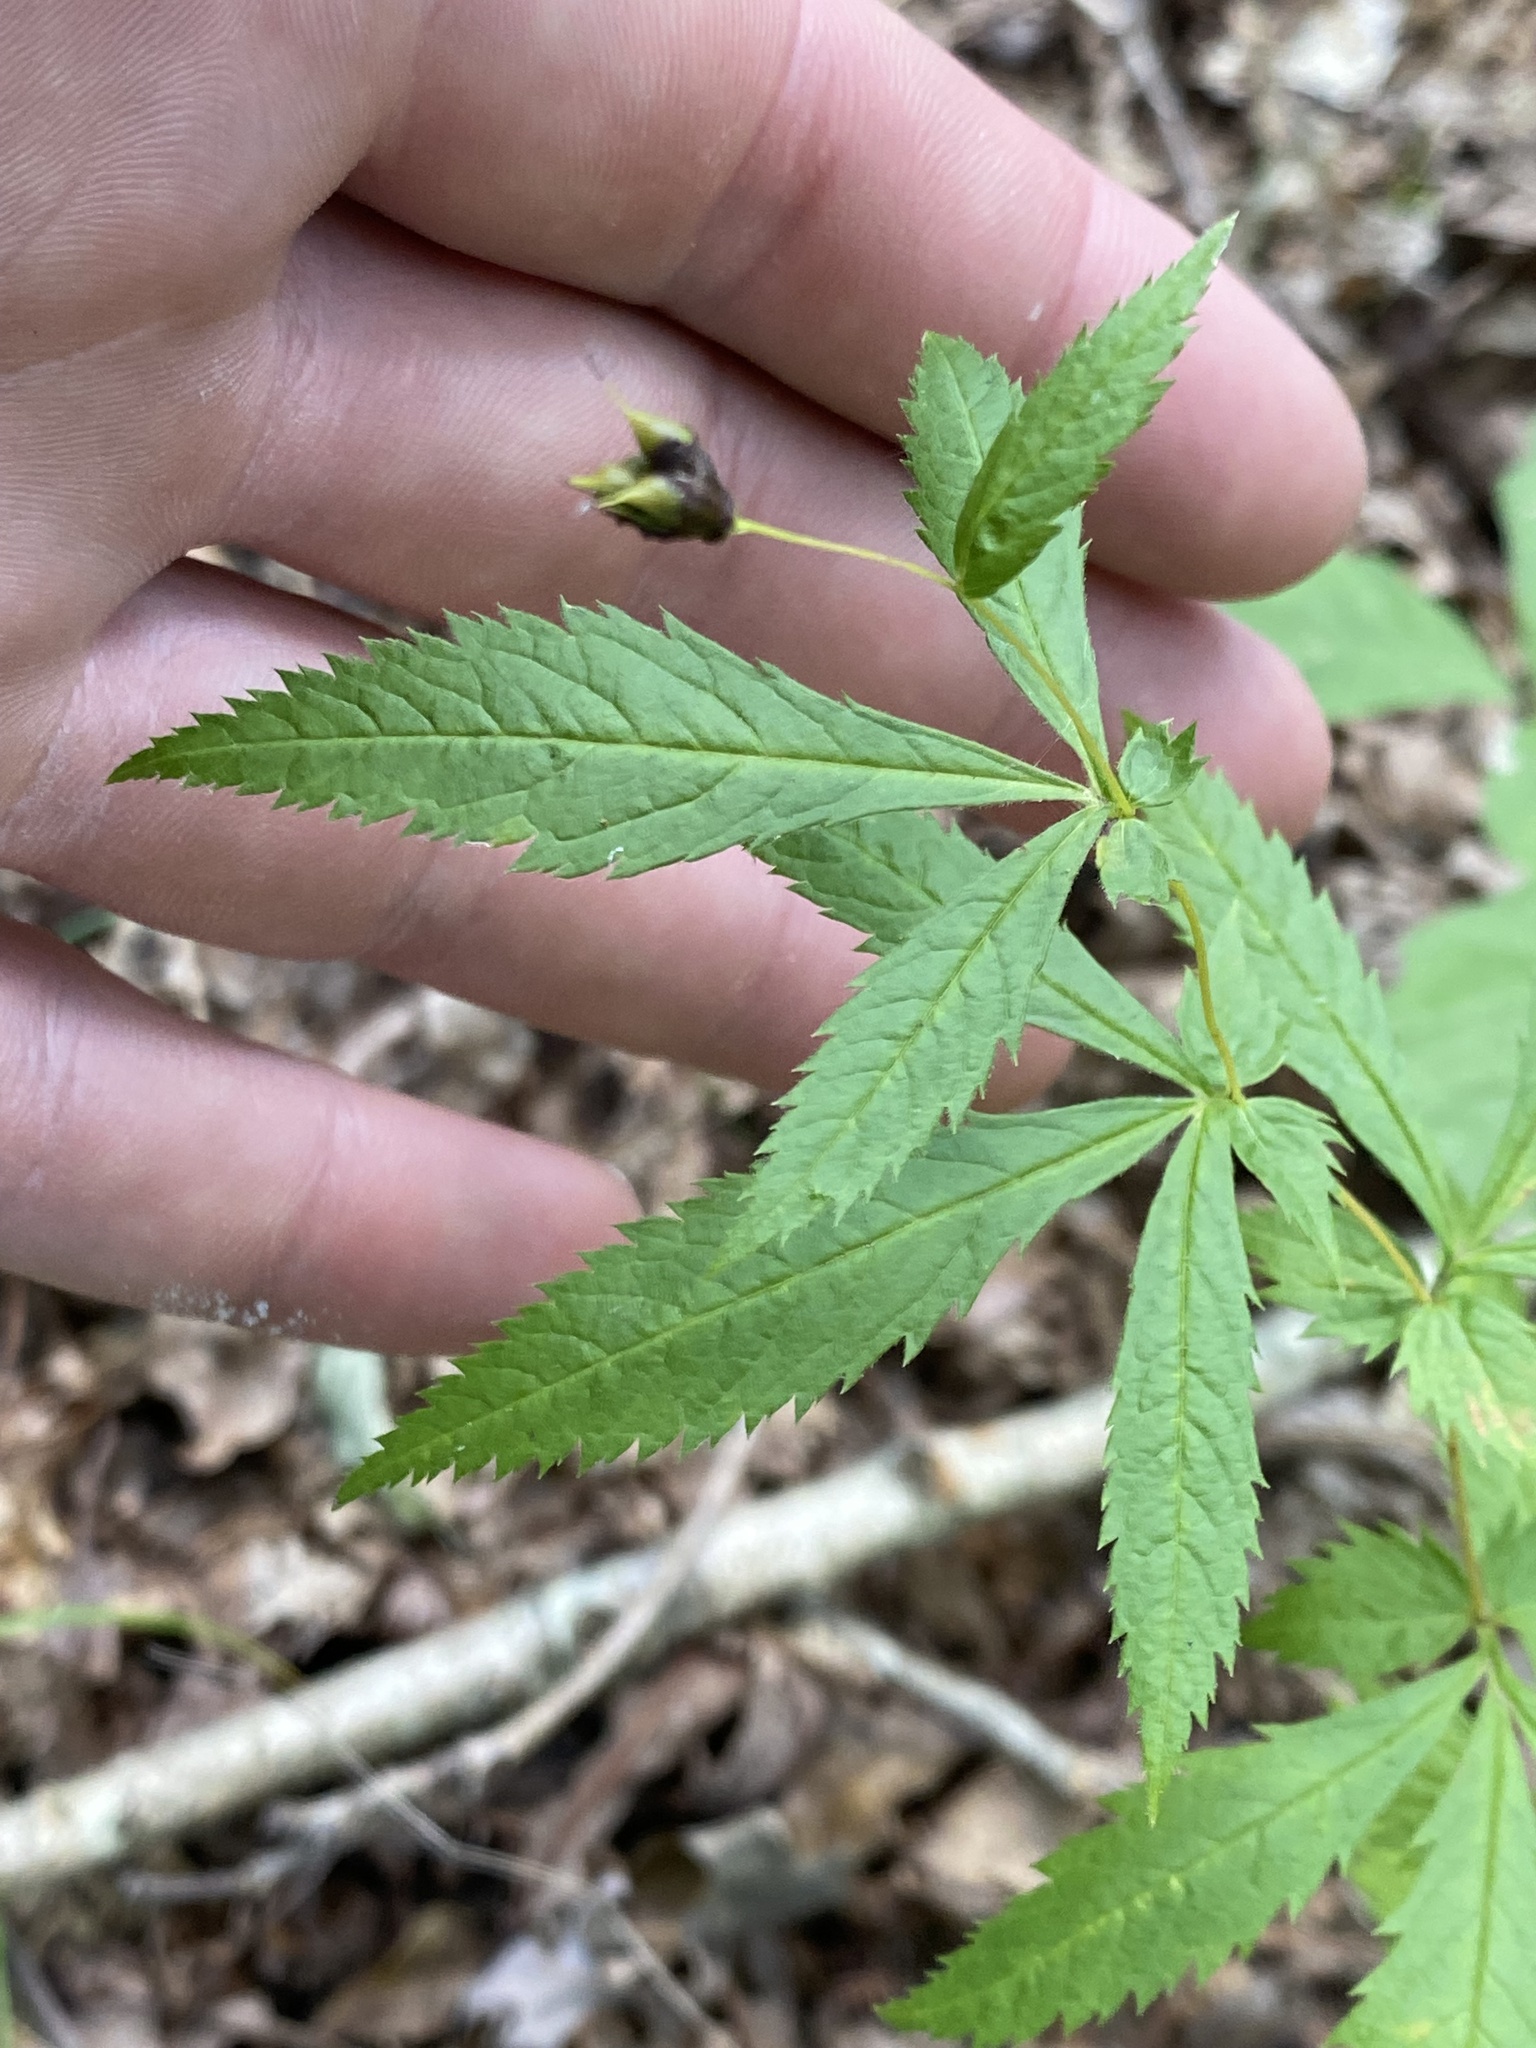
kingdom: Plantae
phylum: Tracheophyta
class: Magnoliopsida
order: Rosales
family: Rosaceae
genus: Gillenia
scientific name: Gillenia stipulata
